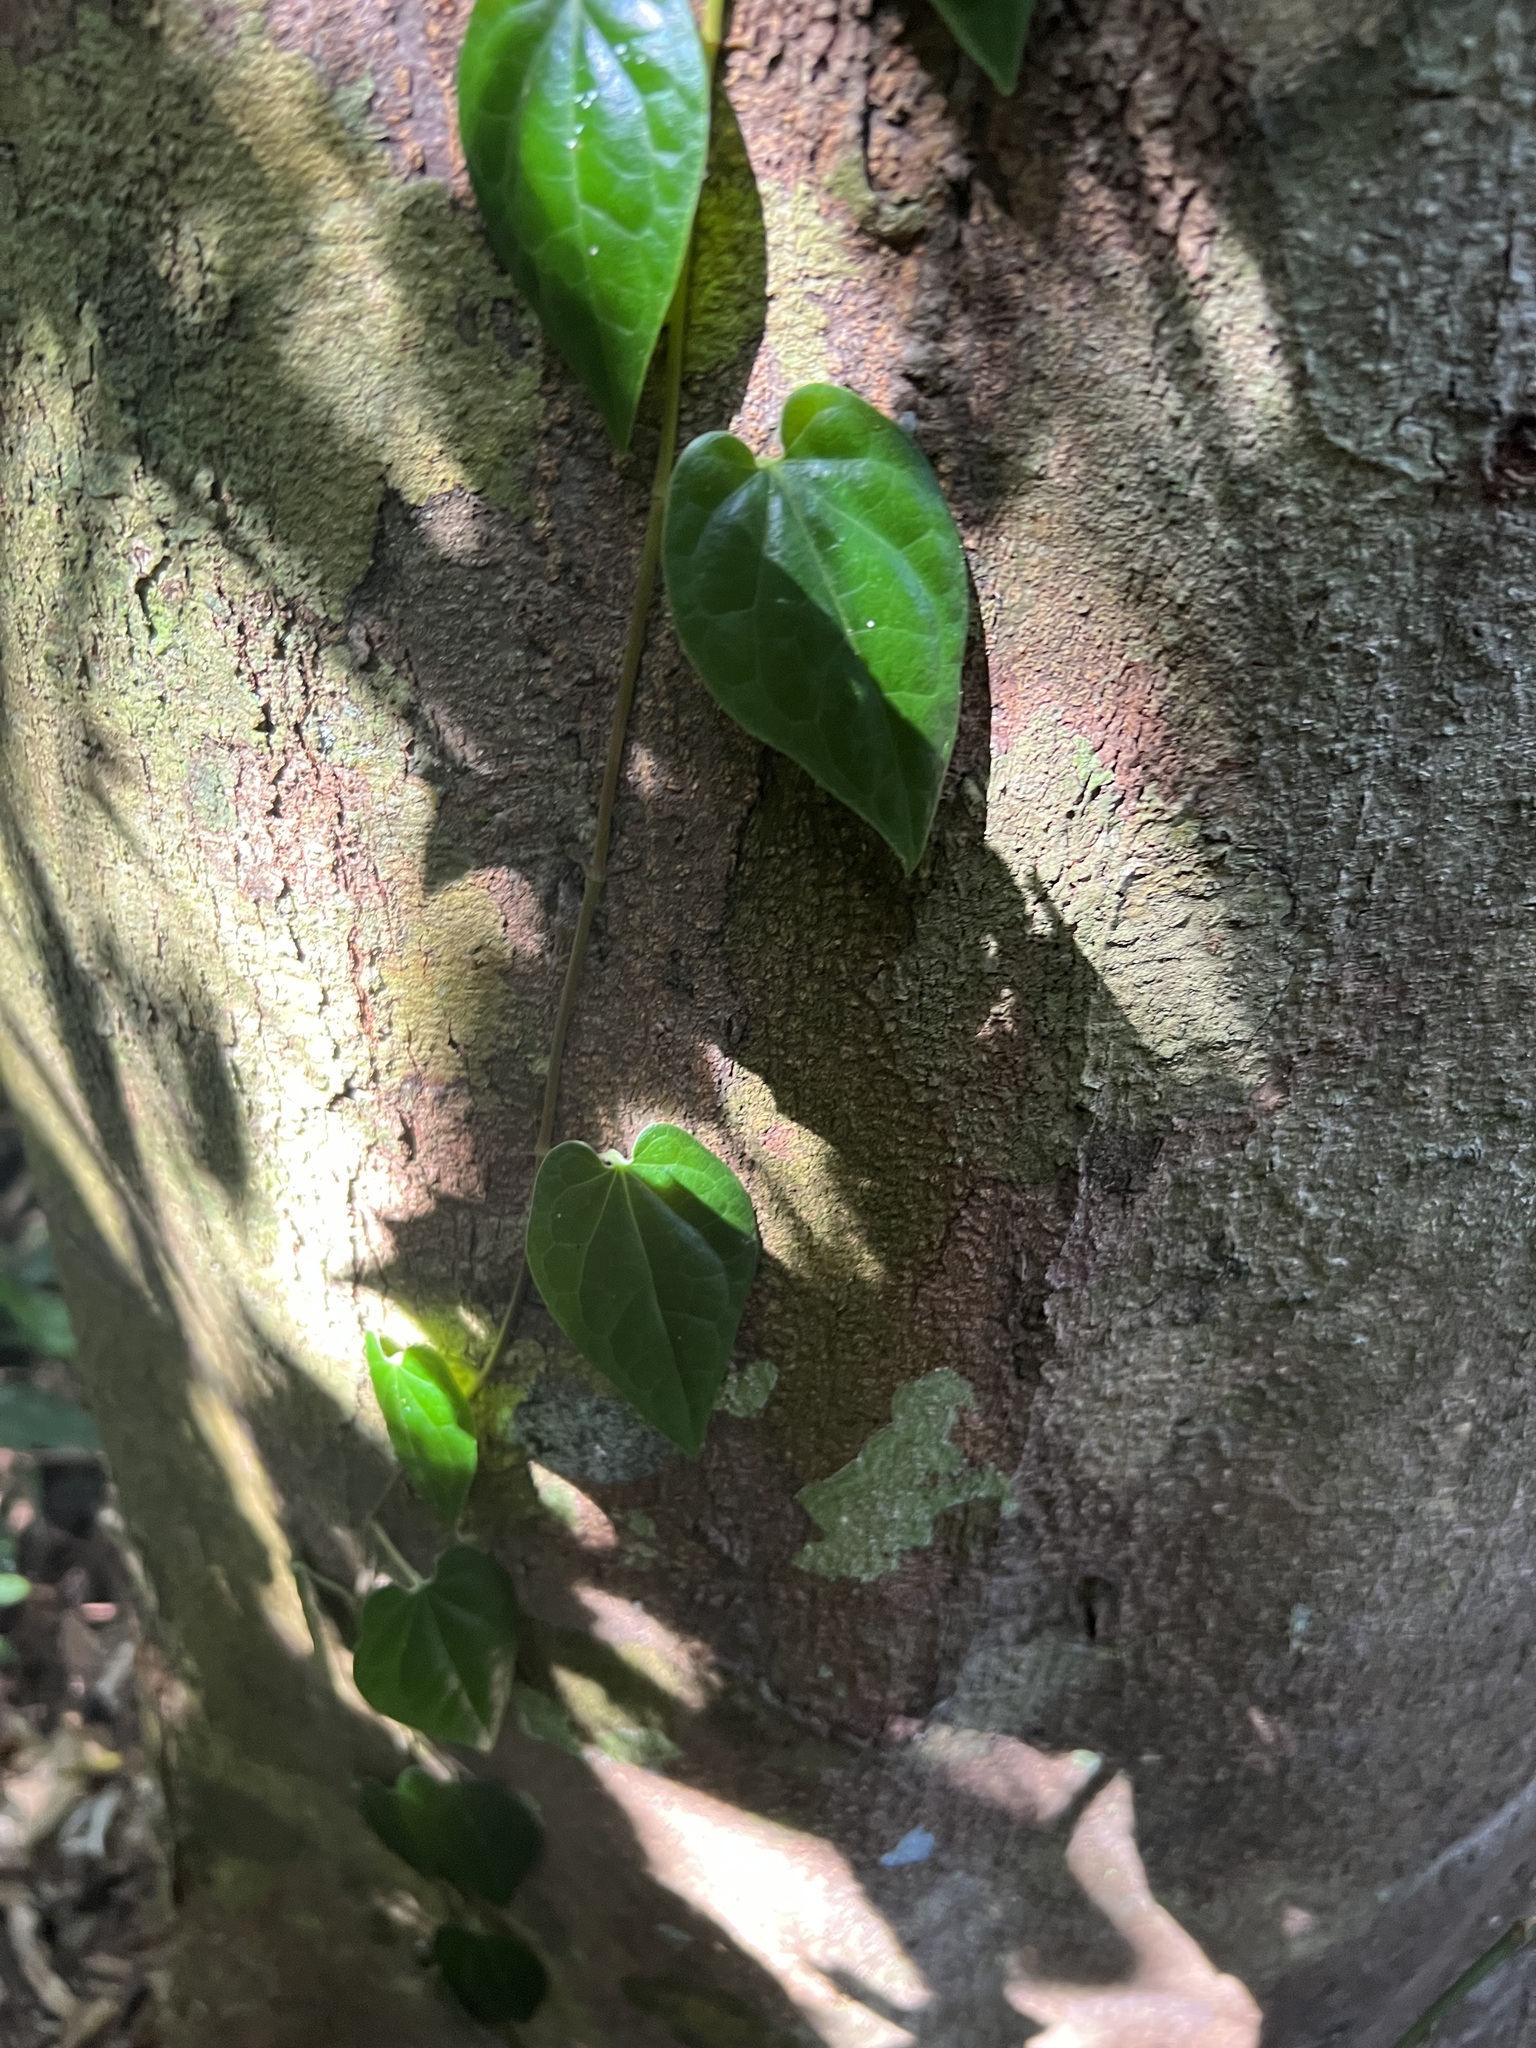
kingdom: Plantae
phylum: Tracheophyta
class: Magnoliopsida
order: Piperales
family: Piperaceae
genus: Piper
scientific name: Piper lanatum
